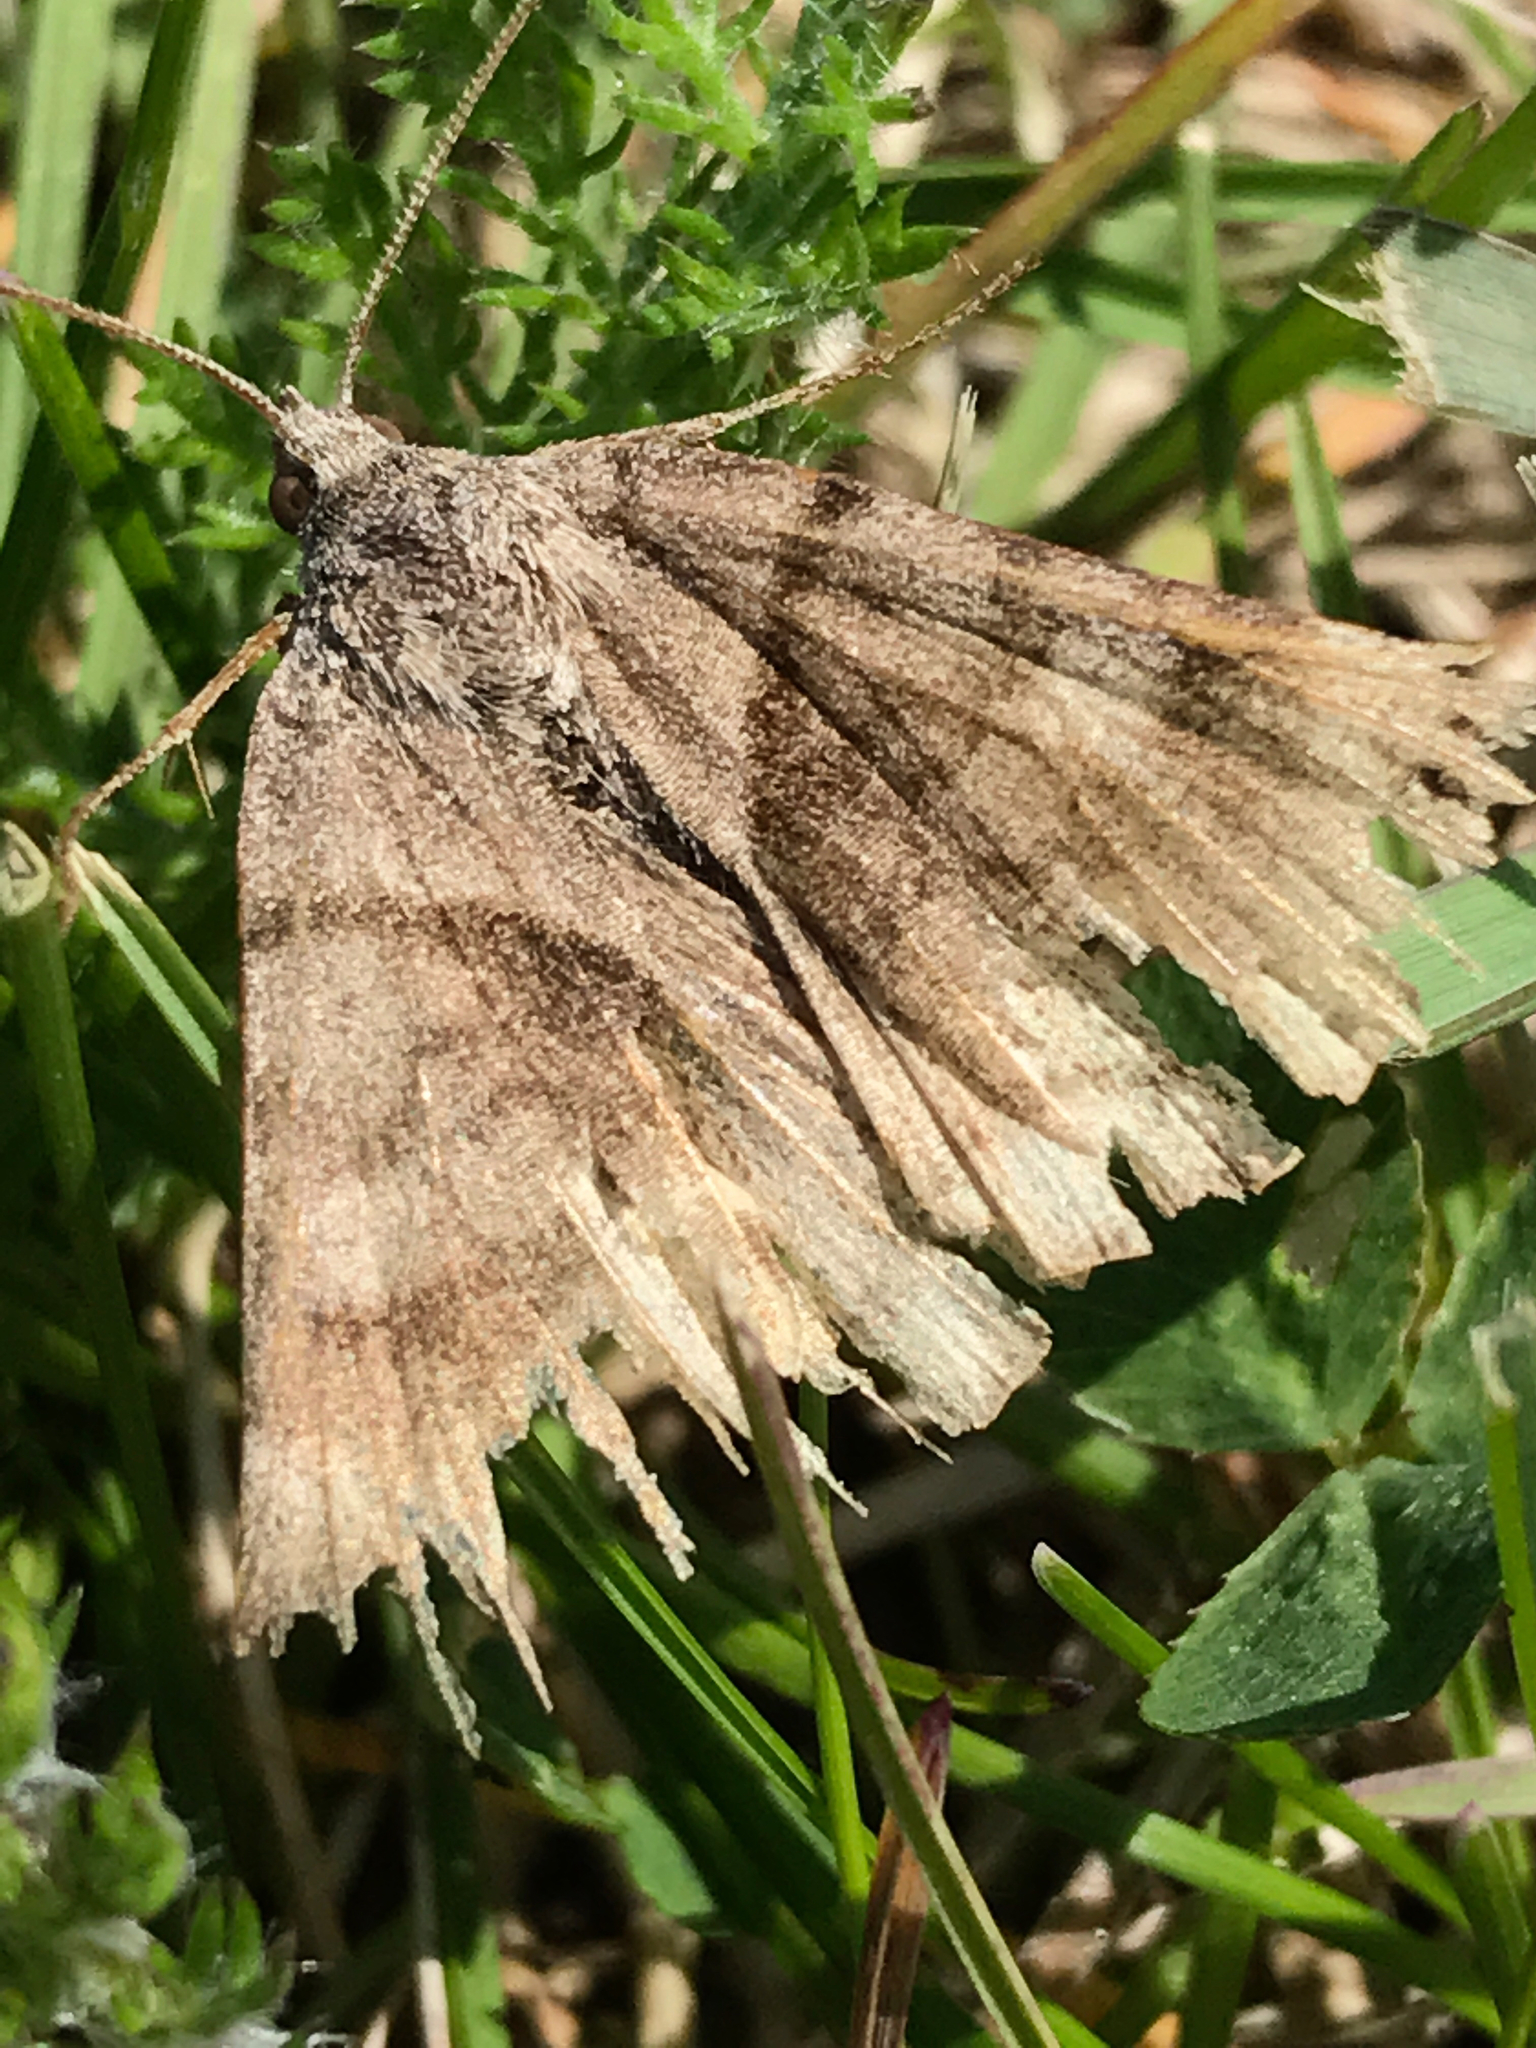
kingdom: Animalia
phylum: Arthropoda
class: Insecta
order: Lepidoptera
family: Erebidae
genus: Caenurgina
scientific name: Caenurgina crassiuscula
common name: Double-barred
